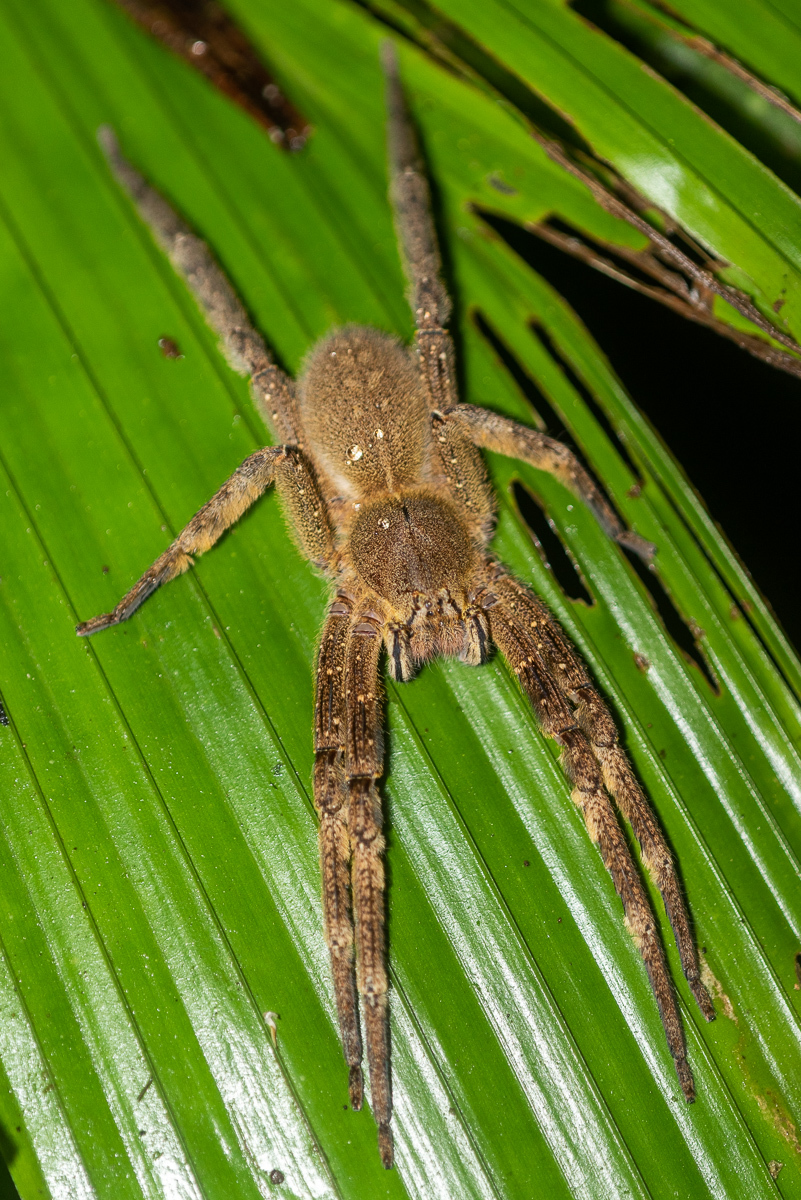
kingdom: Animalia
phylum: Arthropoda
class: Arachnida
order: Araneae
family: Ctenidae
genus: Phoneutria
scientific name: Phoneutria fera
